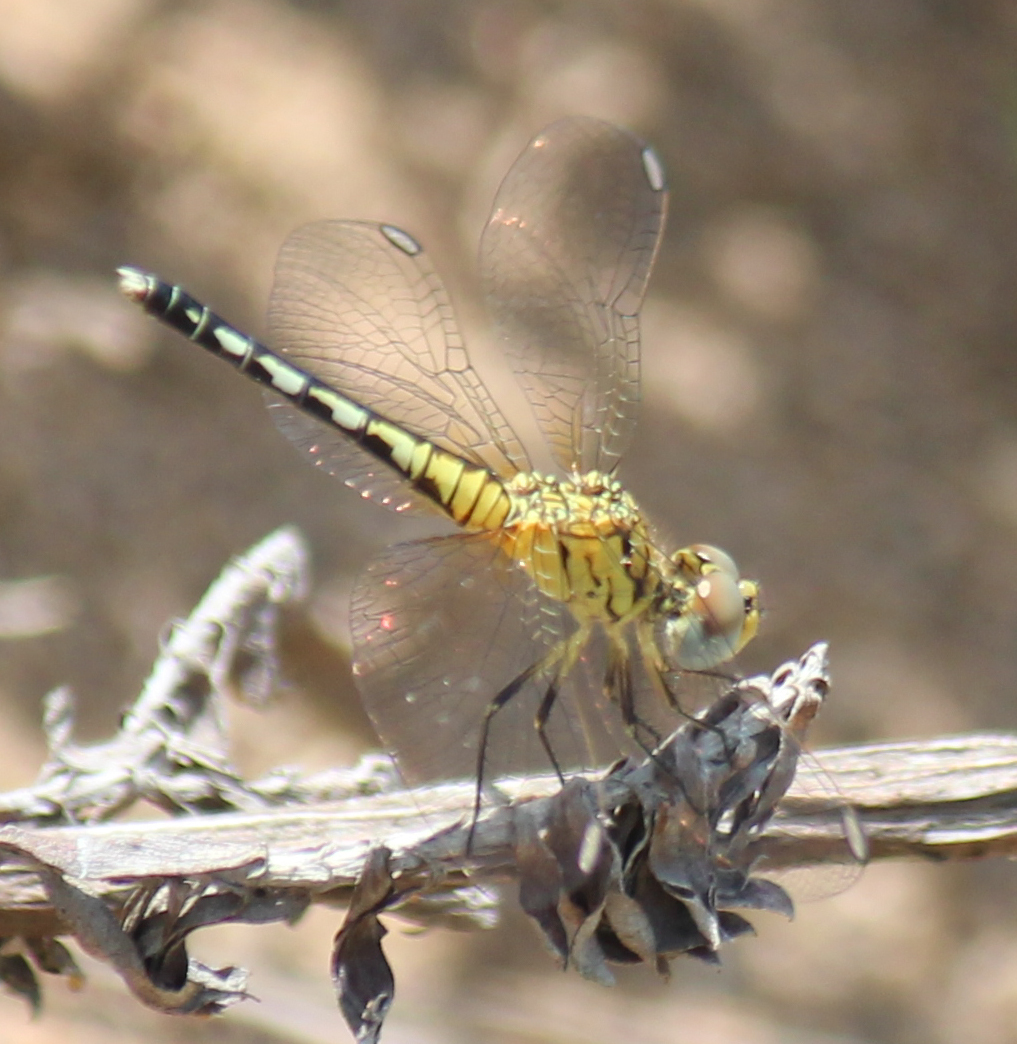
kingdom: Animalia
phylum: Arthropoda
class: Insecta
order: Odonata
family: Libellulidae
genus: Diplacodes
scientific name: Diplacodes lefebvrii
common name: Black percher
